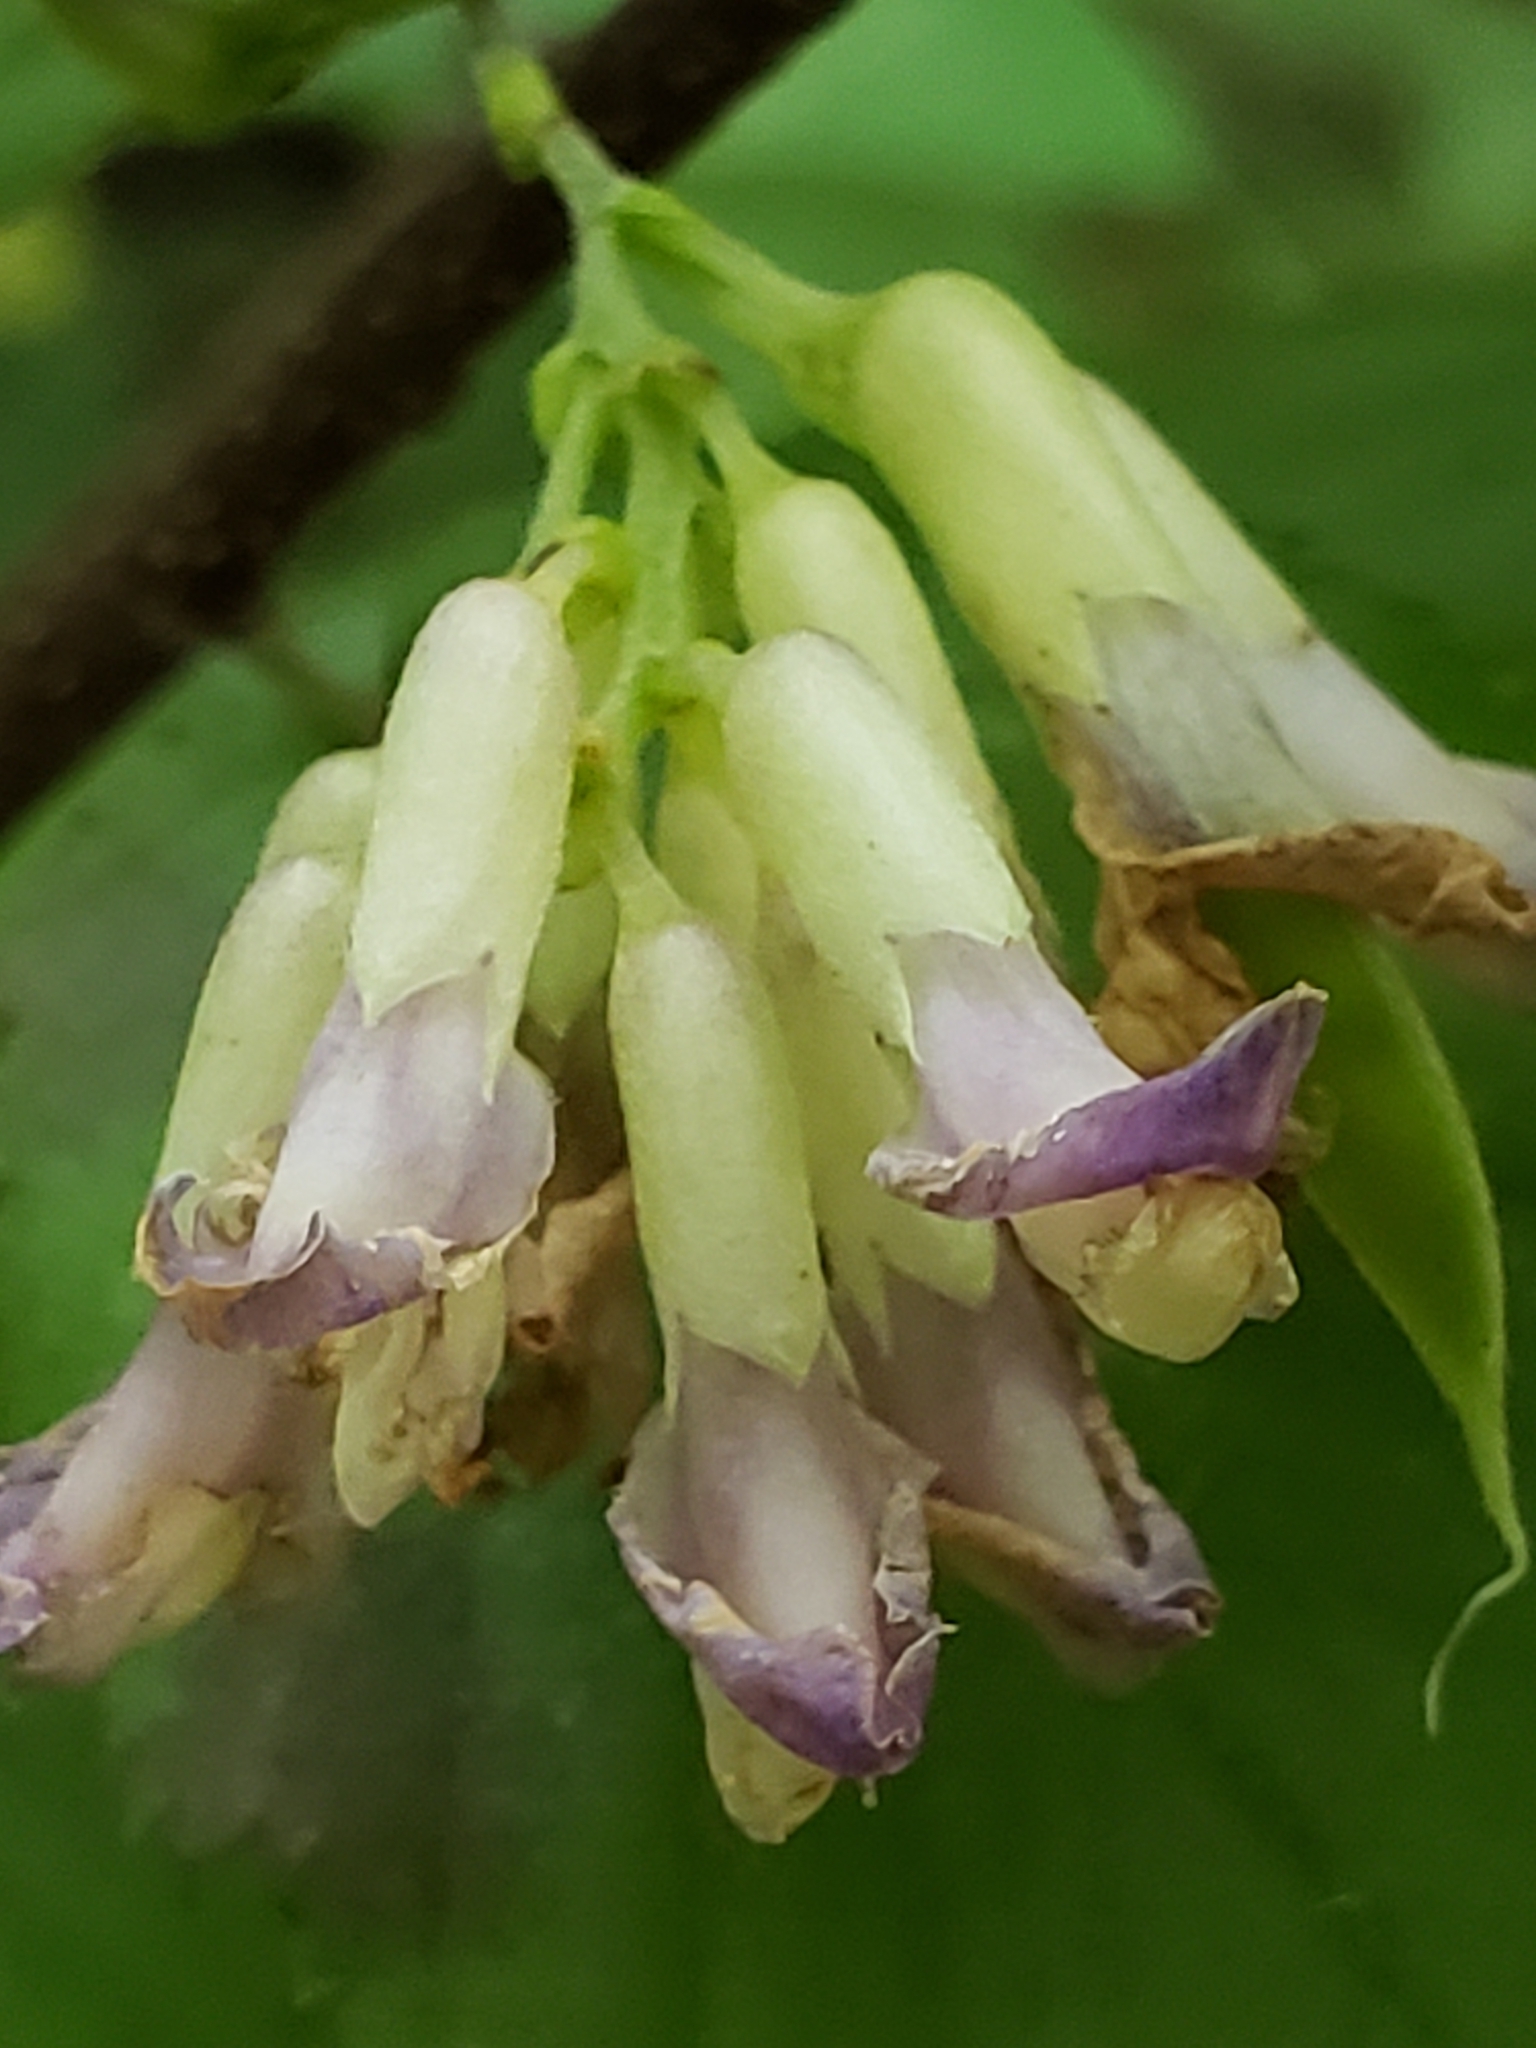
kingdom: Plantae
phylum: Tracheophyta
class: Magnoliopsida
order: Fabales
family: Fabaceae
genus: Amphicarpaea
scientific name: Amphicarpaea bracteata
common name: American hog peanut
